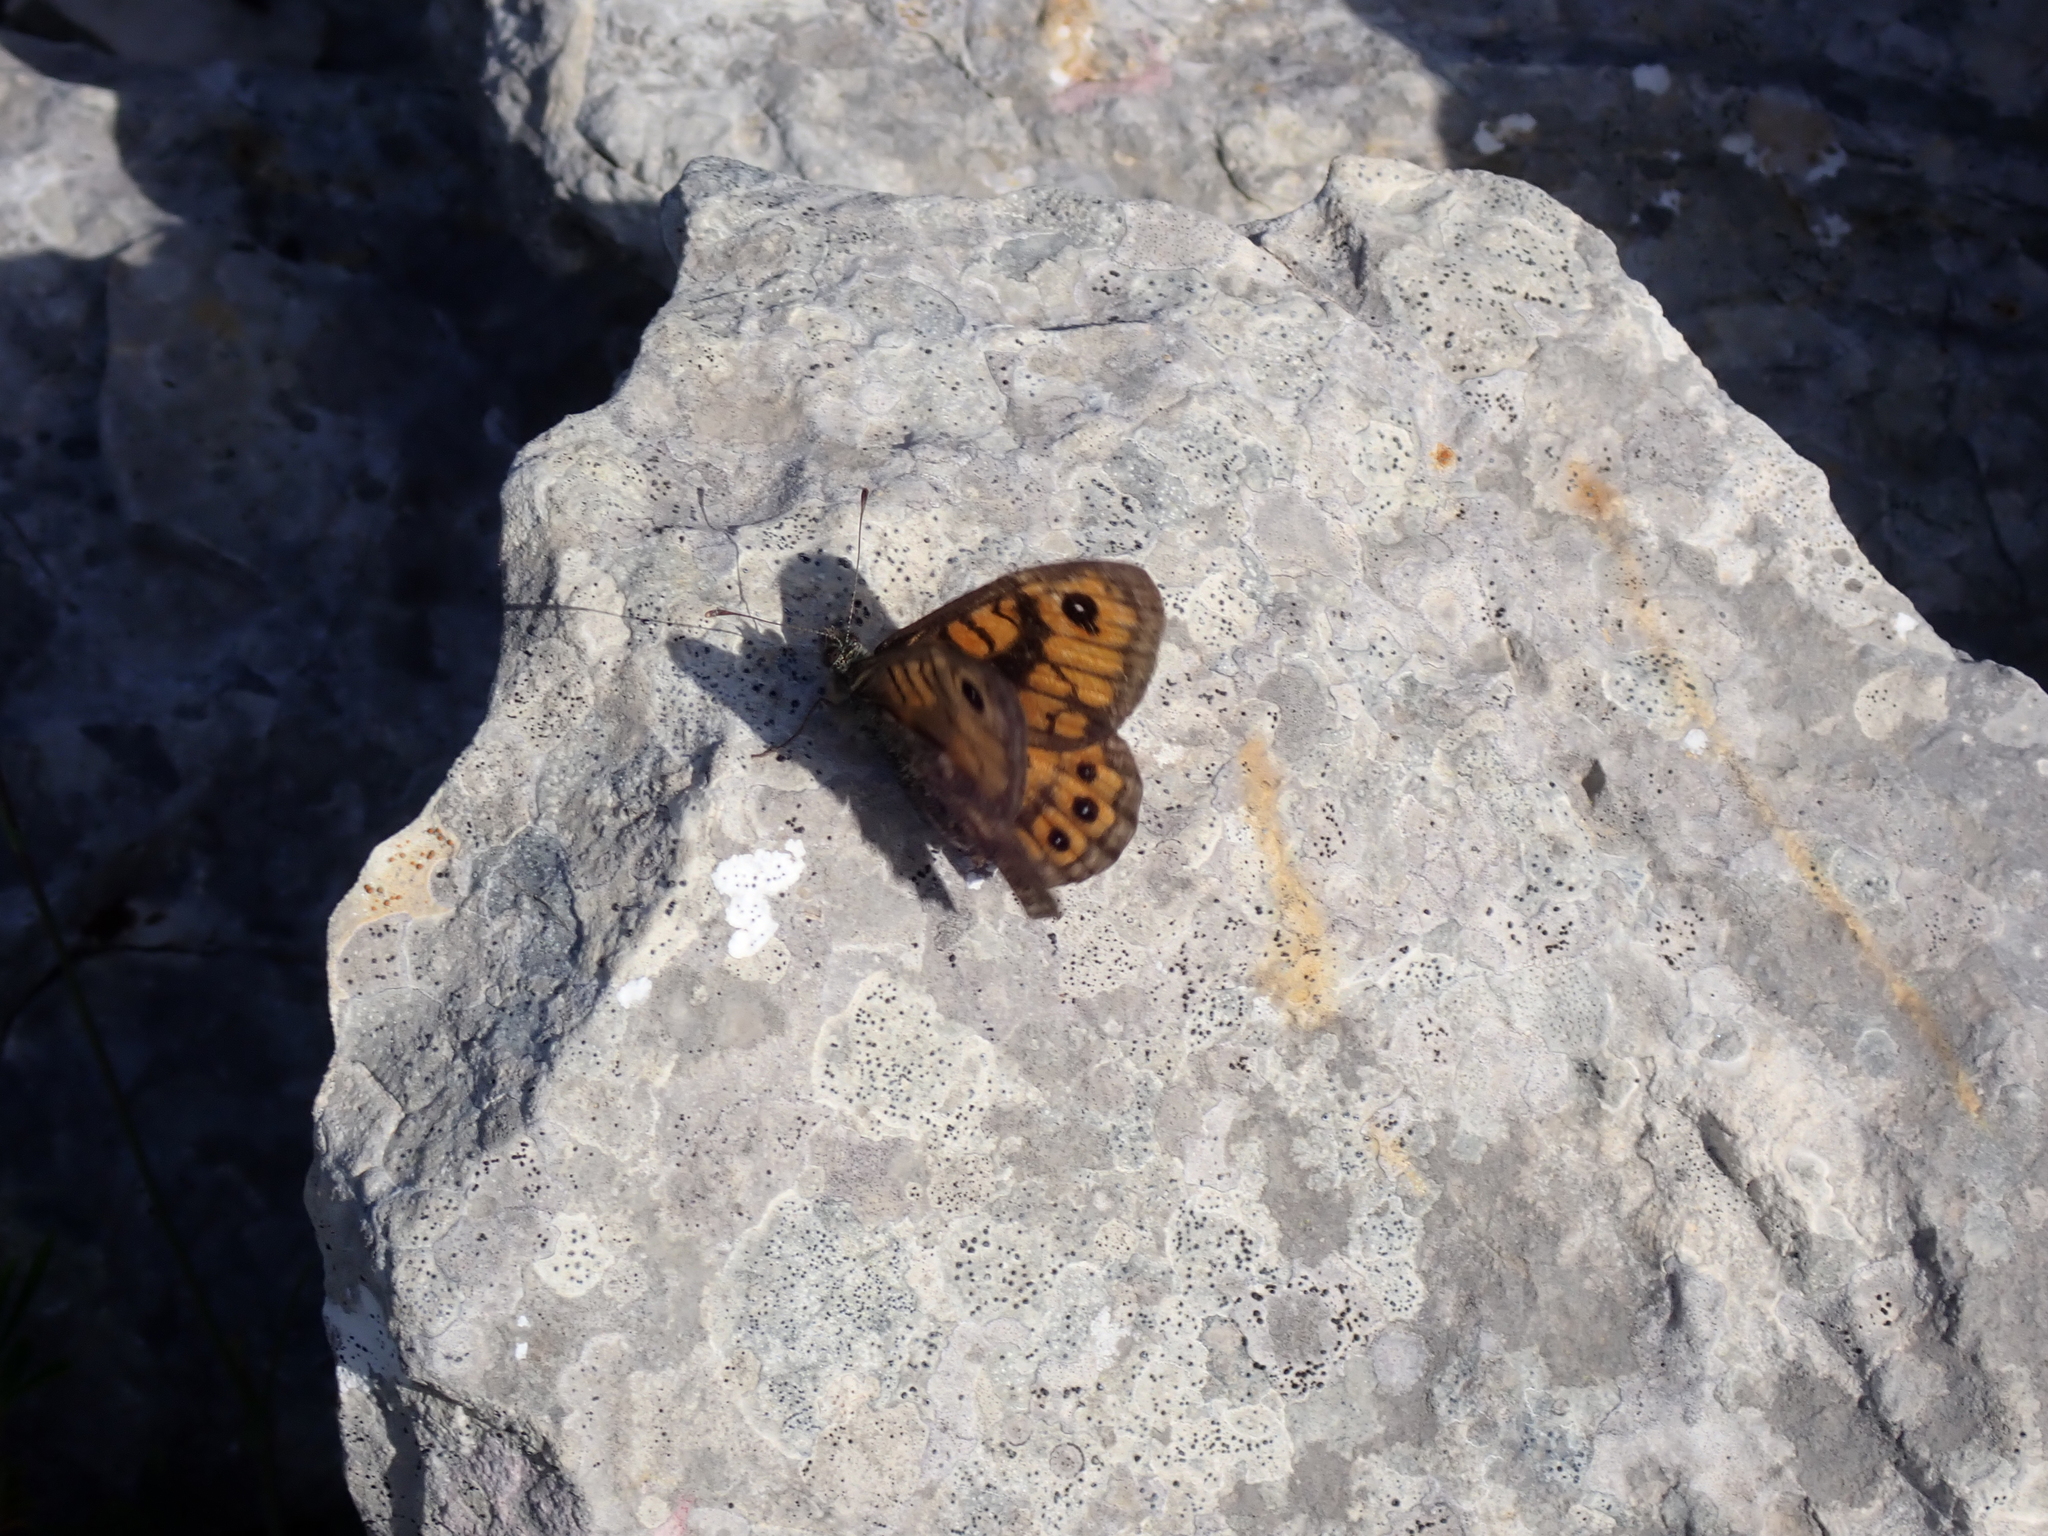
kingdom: Animalia
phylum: Arthropoda
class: Insecta
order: Lepidoptera
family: Nymphalidae
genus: Pararge
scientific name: Pararge Lasiommata megera
